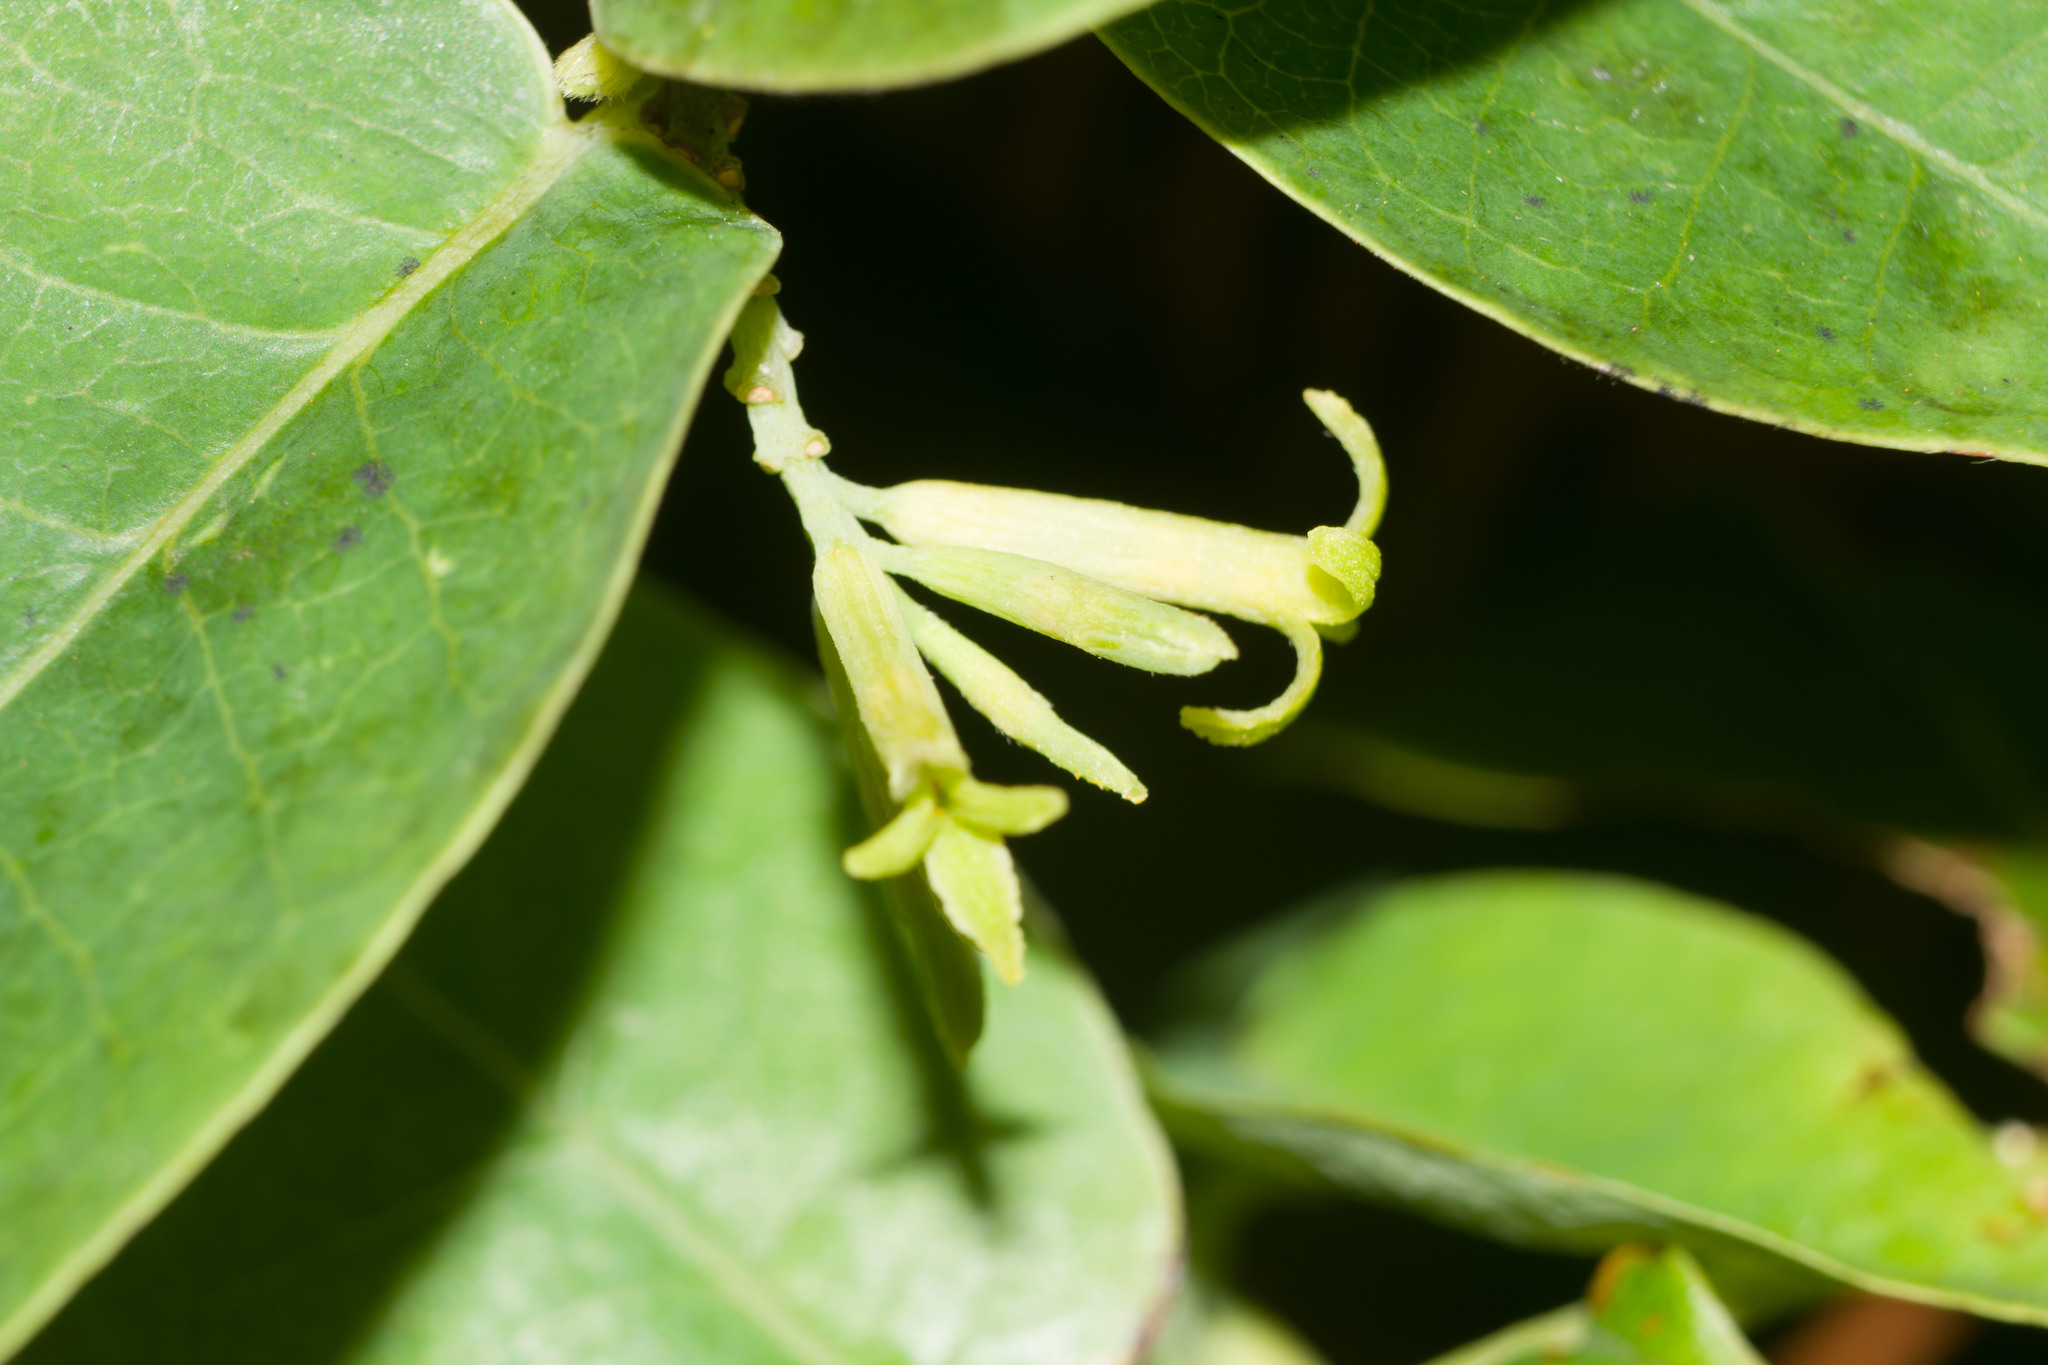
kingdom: Plantae
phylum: Tracheophyta
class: Magnoliopsida
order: Malvales
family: Thymelaeaceae
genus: Wikstroemia
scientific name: Wikstroemia oahuensis
